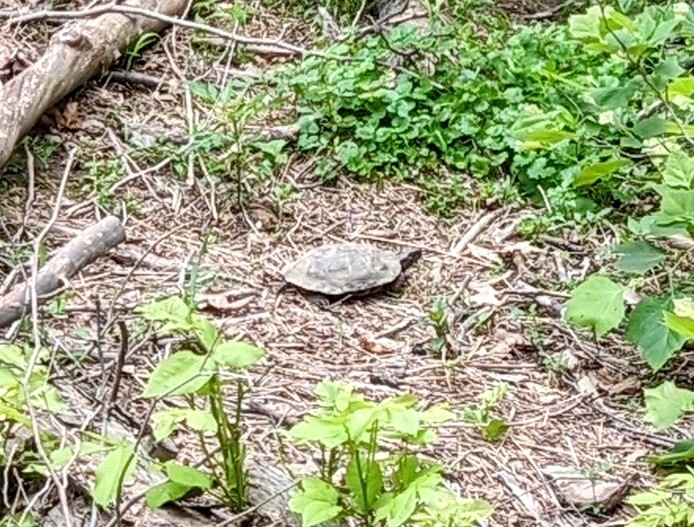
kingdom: Animalia
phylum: Chordata
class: Testudines
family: Emydidae
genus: Glyptemys
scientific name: Glyptemys insculpta
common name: Wood turtle
